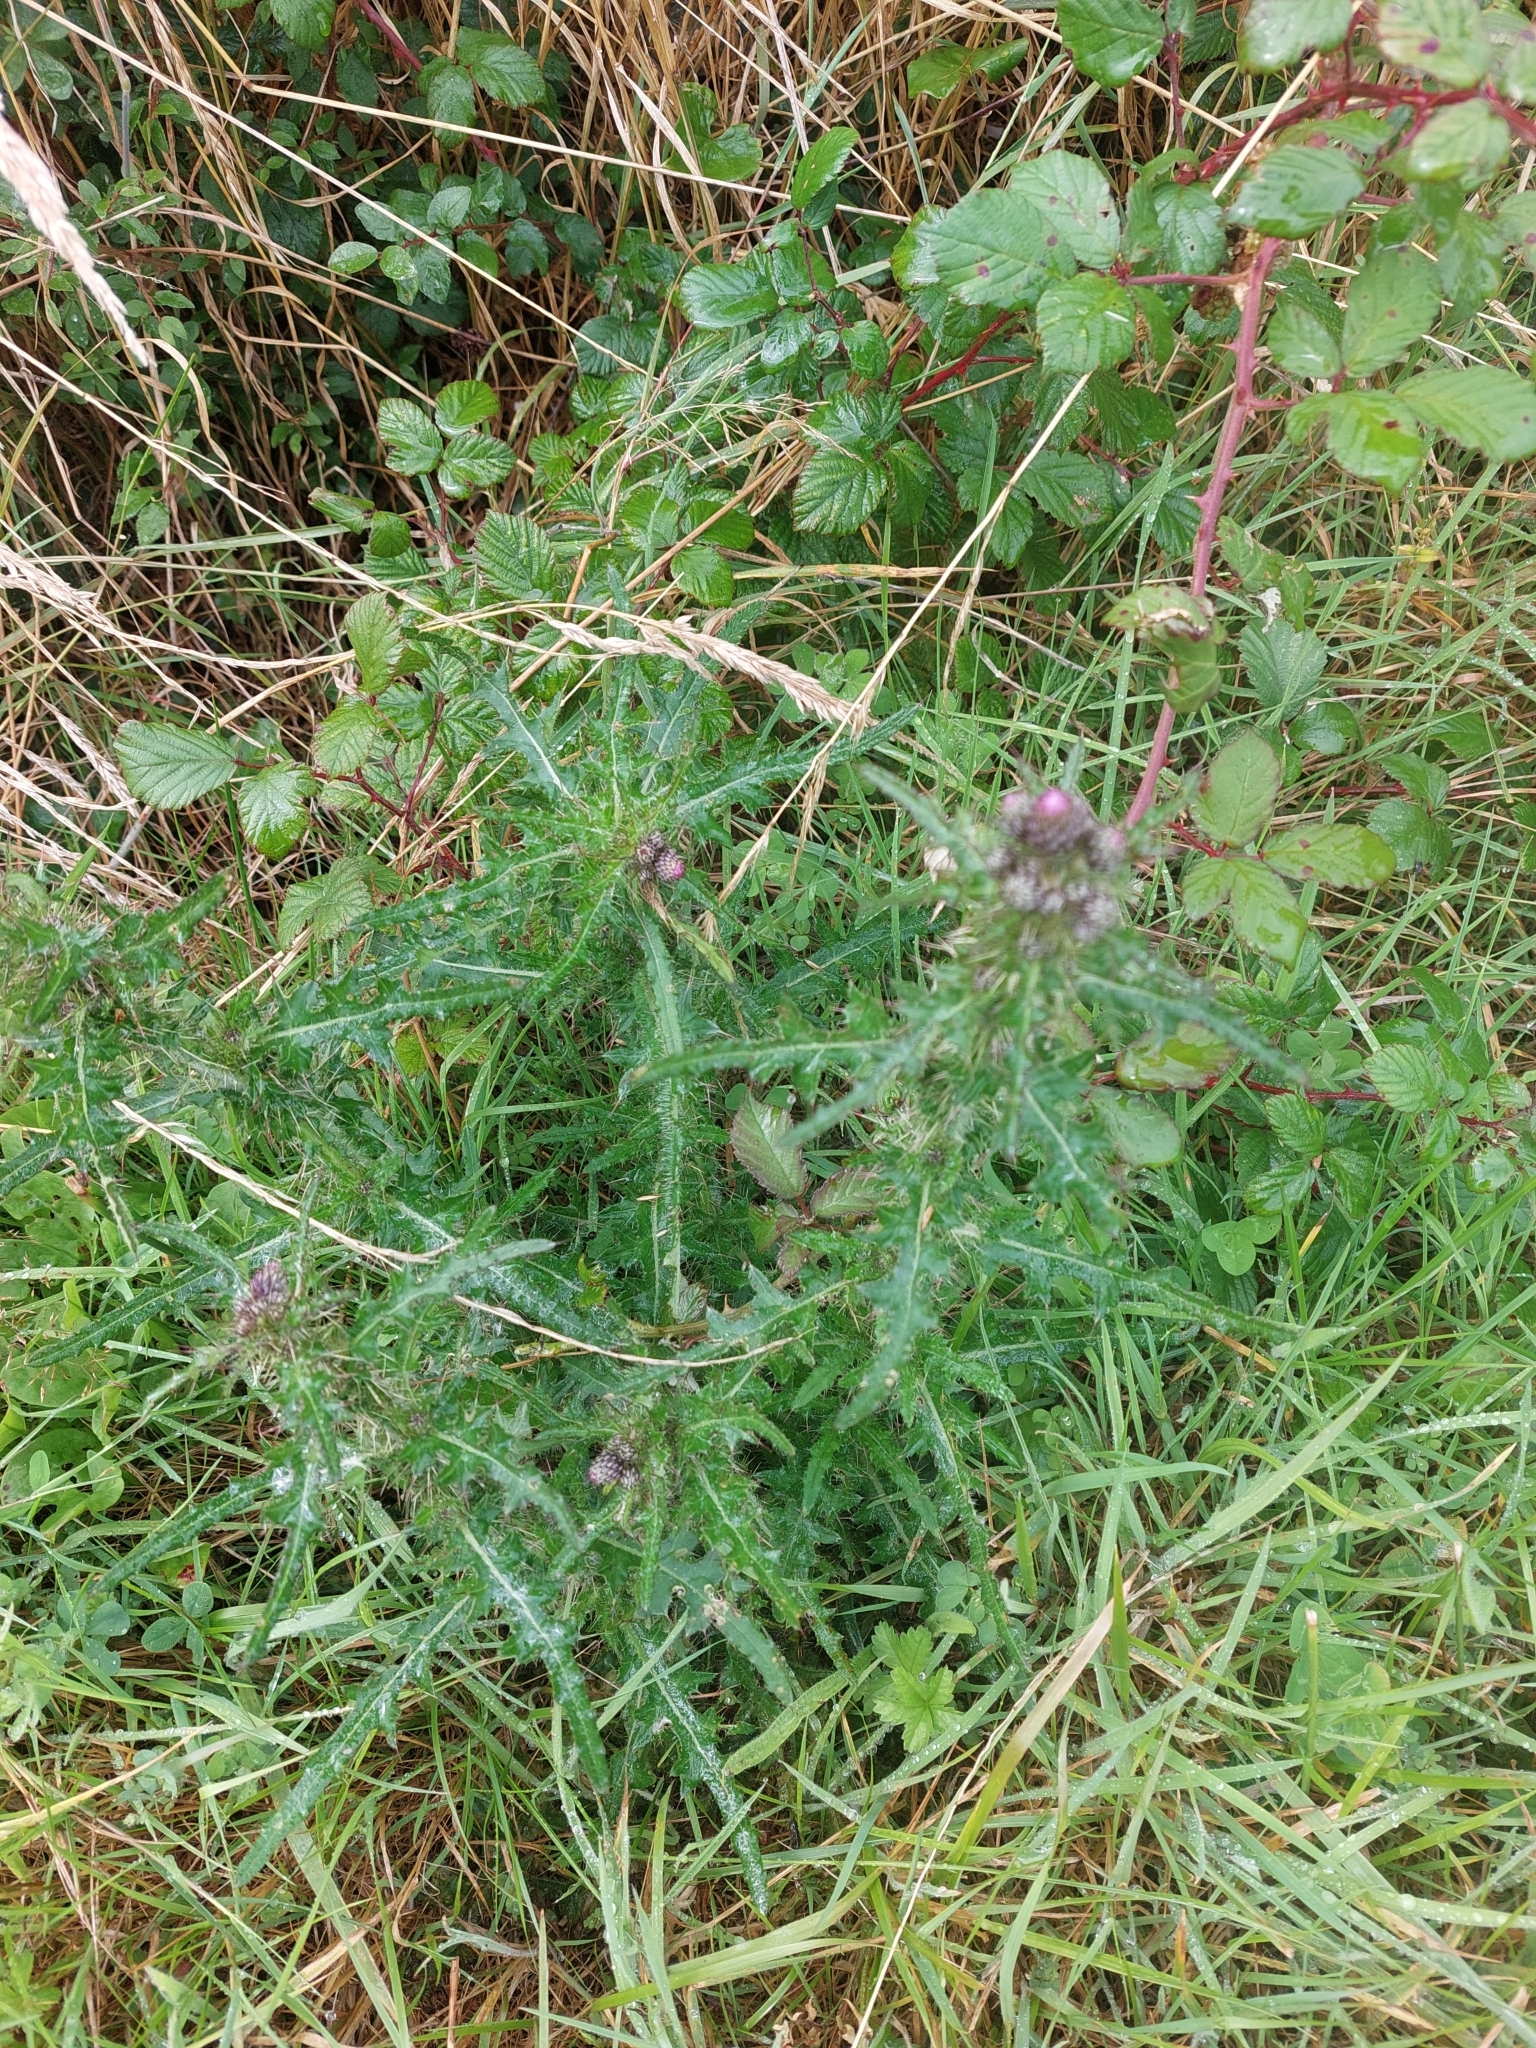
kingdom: Plantae
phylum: Tracheophyta
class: Magnoliopsida
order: Asterales
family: Asteraceae
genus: Cirsium
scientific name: Cirsium palustre
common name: Marsh thistle
